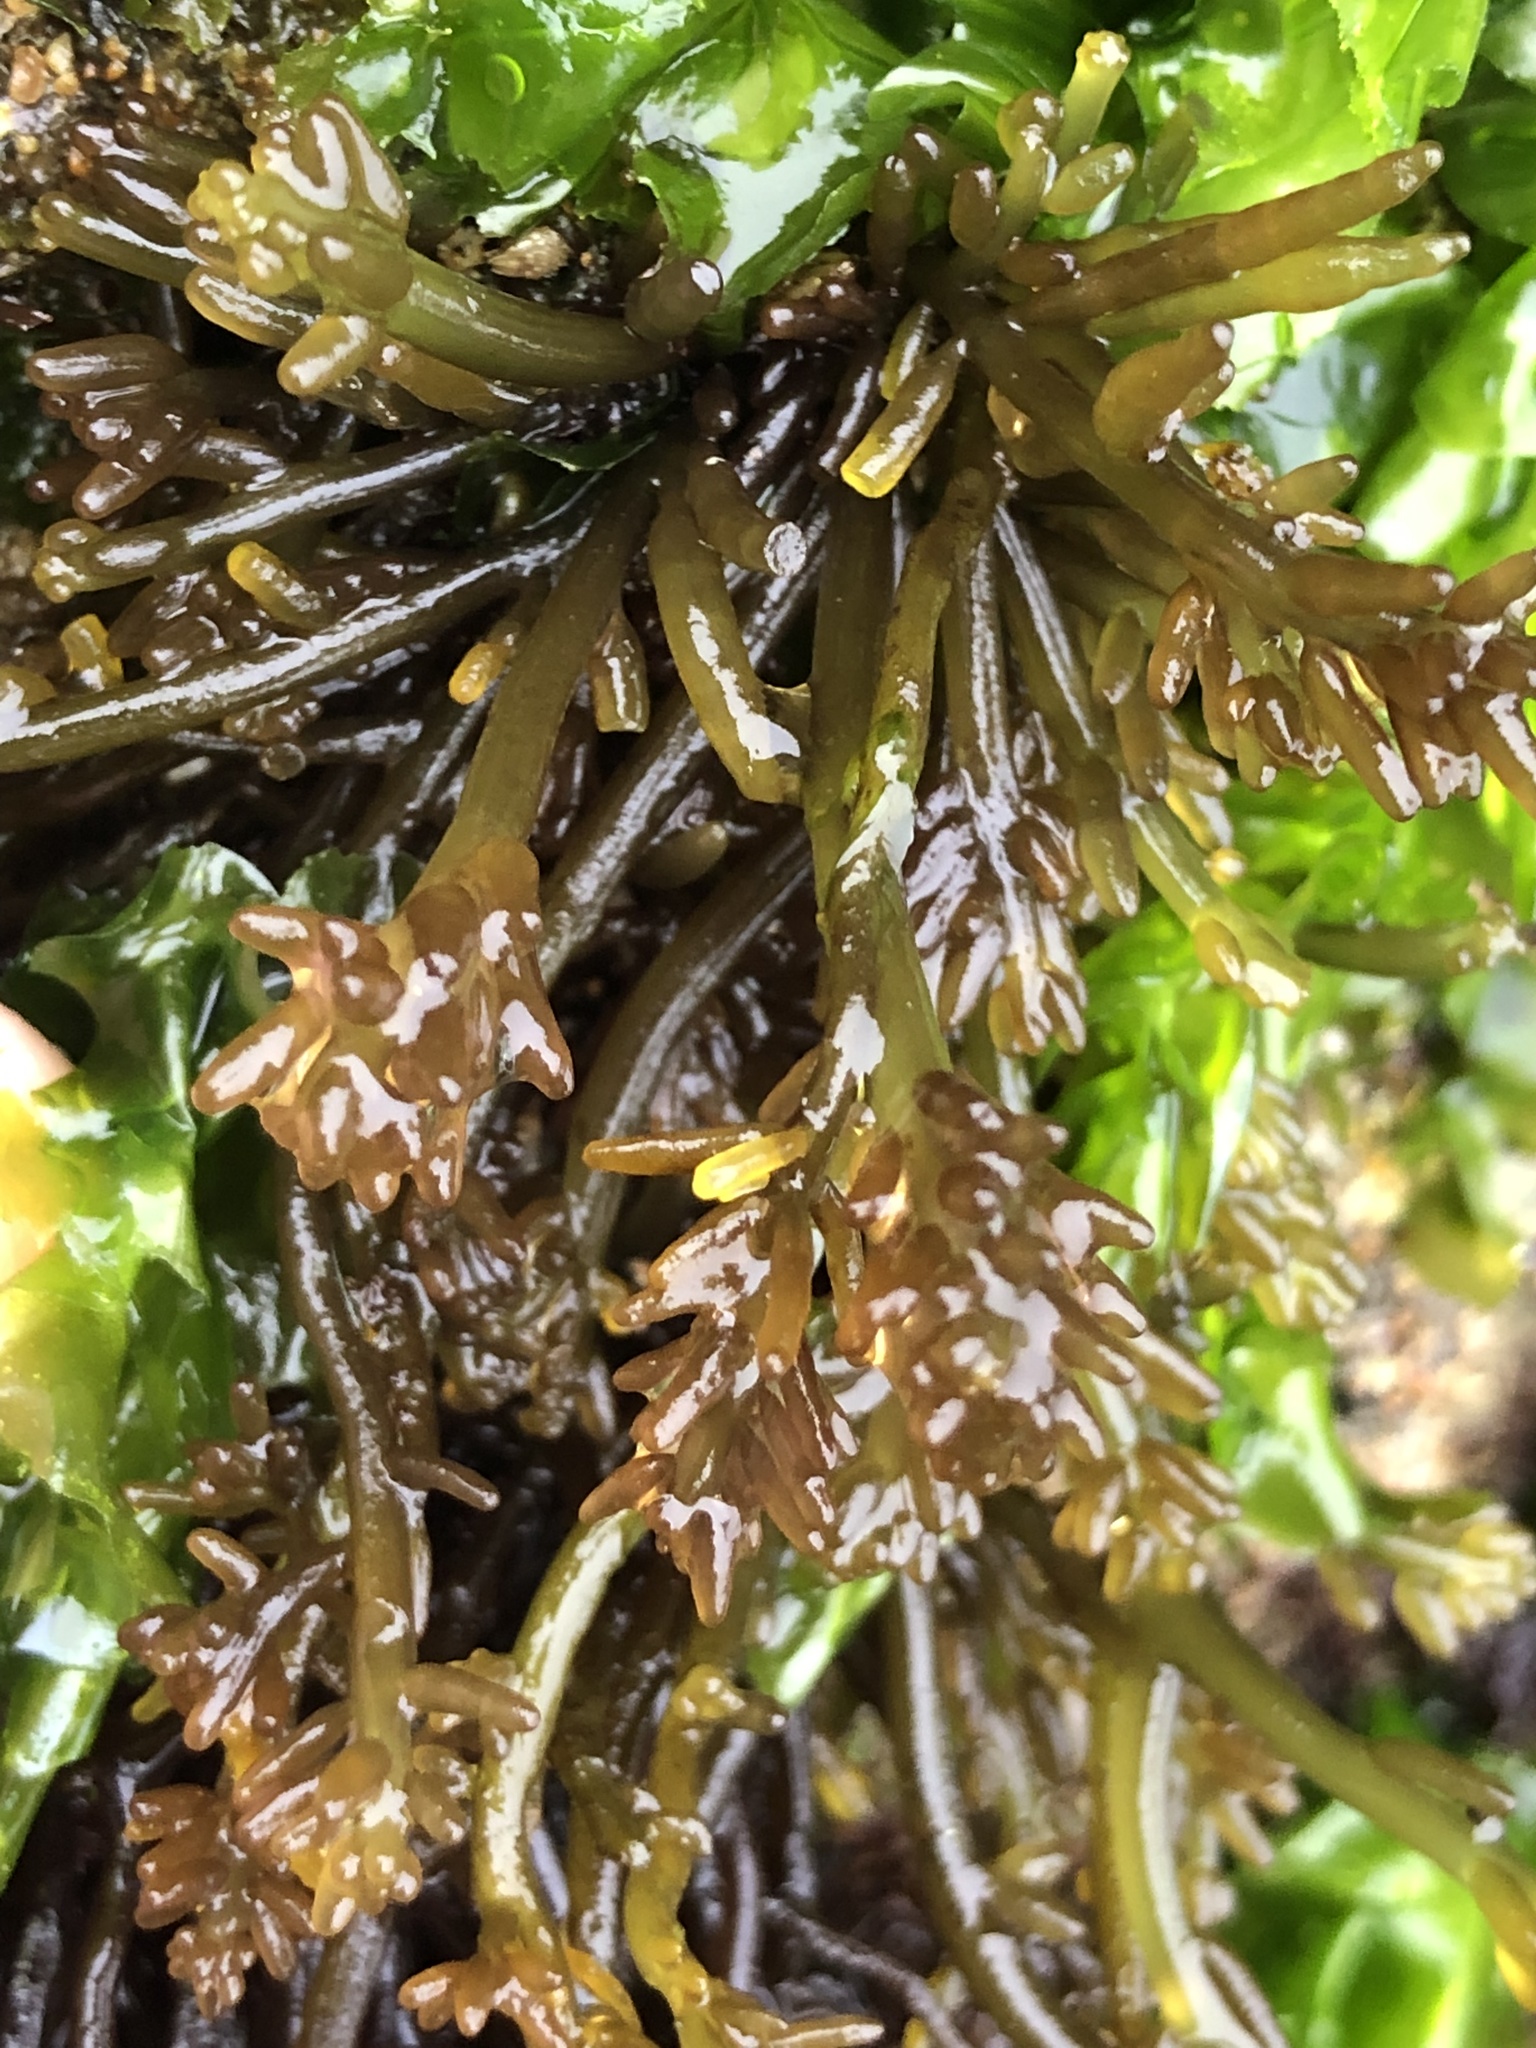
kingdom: Plantae
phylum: Rhodophyta
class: Florideophyceae
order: Rhodymeniales
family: Champiaceae
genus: Neogastroclonium
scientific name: Neogastroclonium subarticulatum
